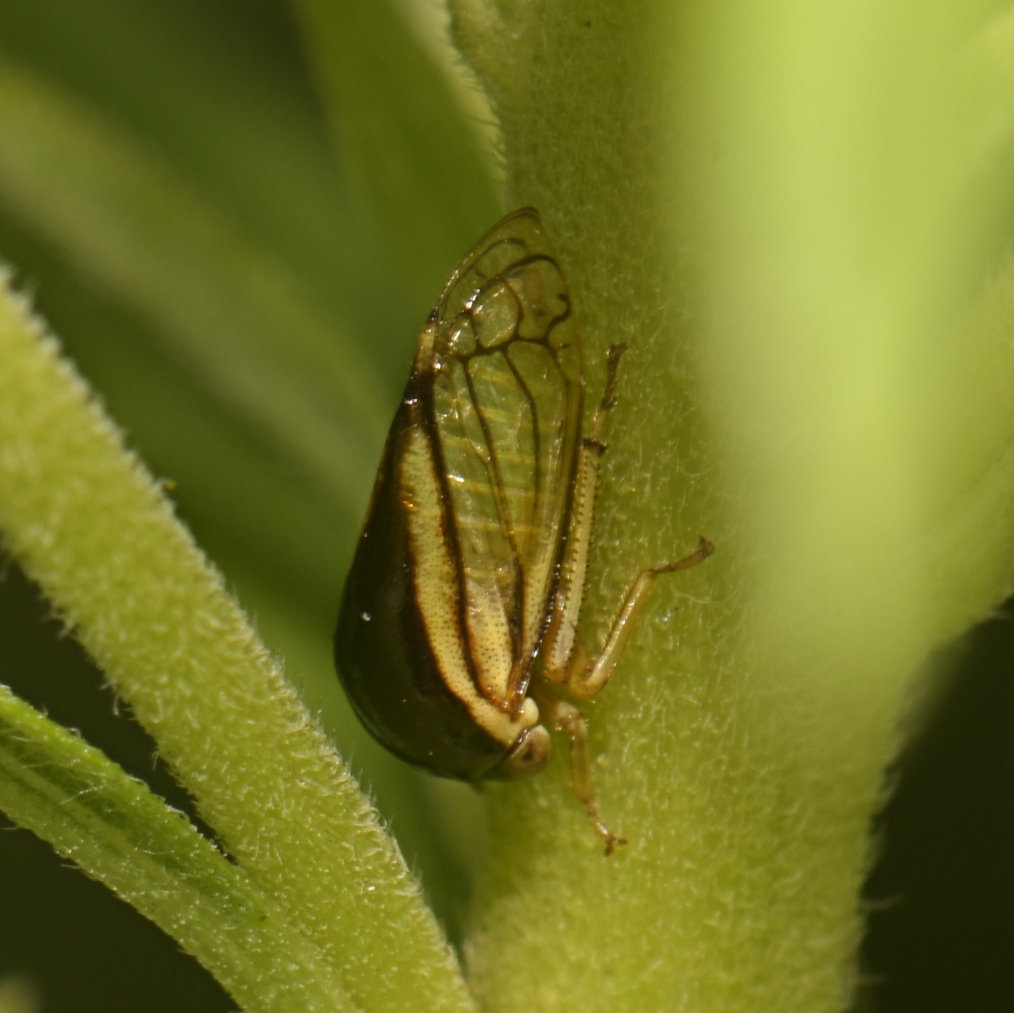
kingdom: Animalia
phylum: Arthropoda
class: Insecta
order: Hemiptera
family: Membracidae
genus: Acutalis
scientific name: Acutalis tartarea
